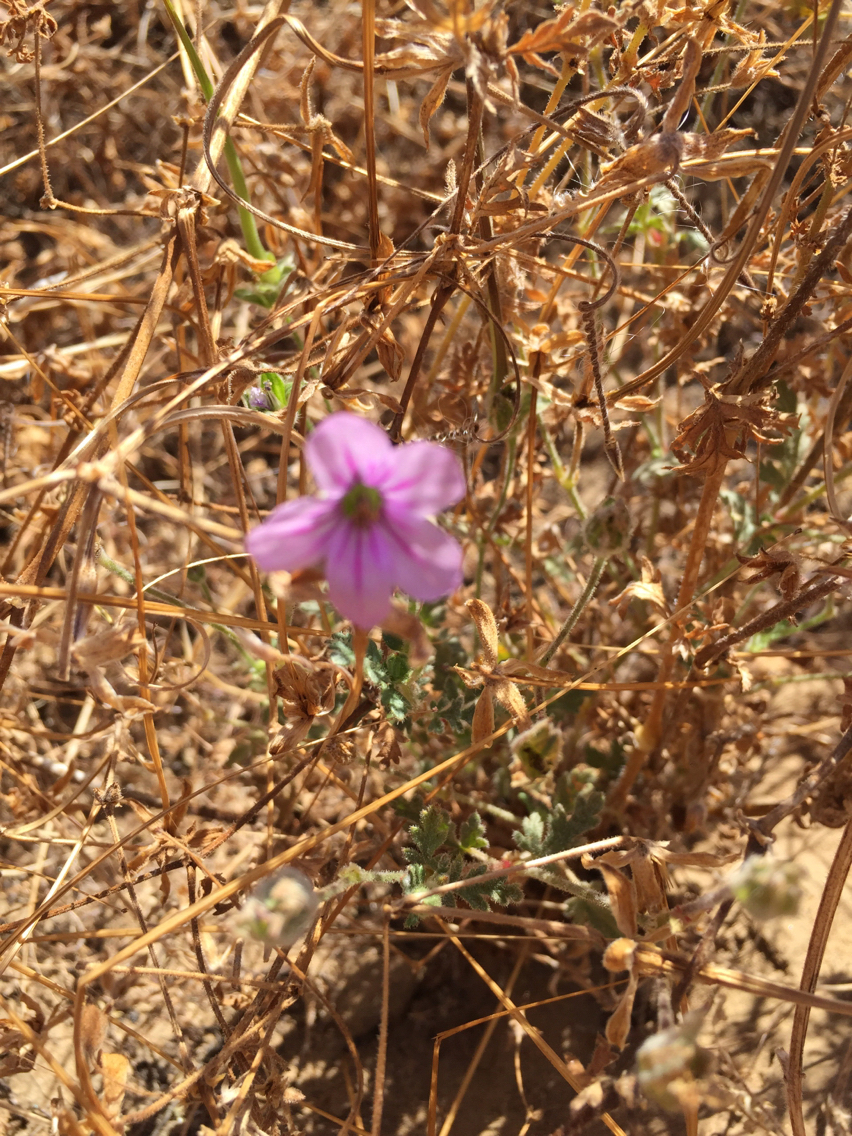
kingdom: Plantae
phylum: Tracheophyta
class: Magnoliopsida
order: Geraniales
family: Geraniaceae
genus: Erodium
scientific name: Erodium botrys
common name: Mediterranean stork's-bill
